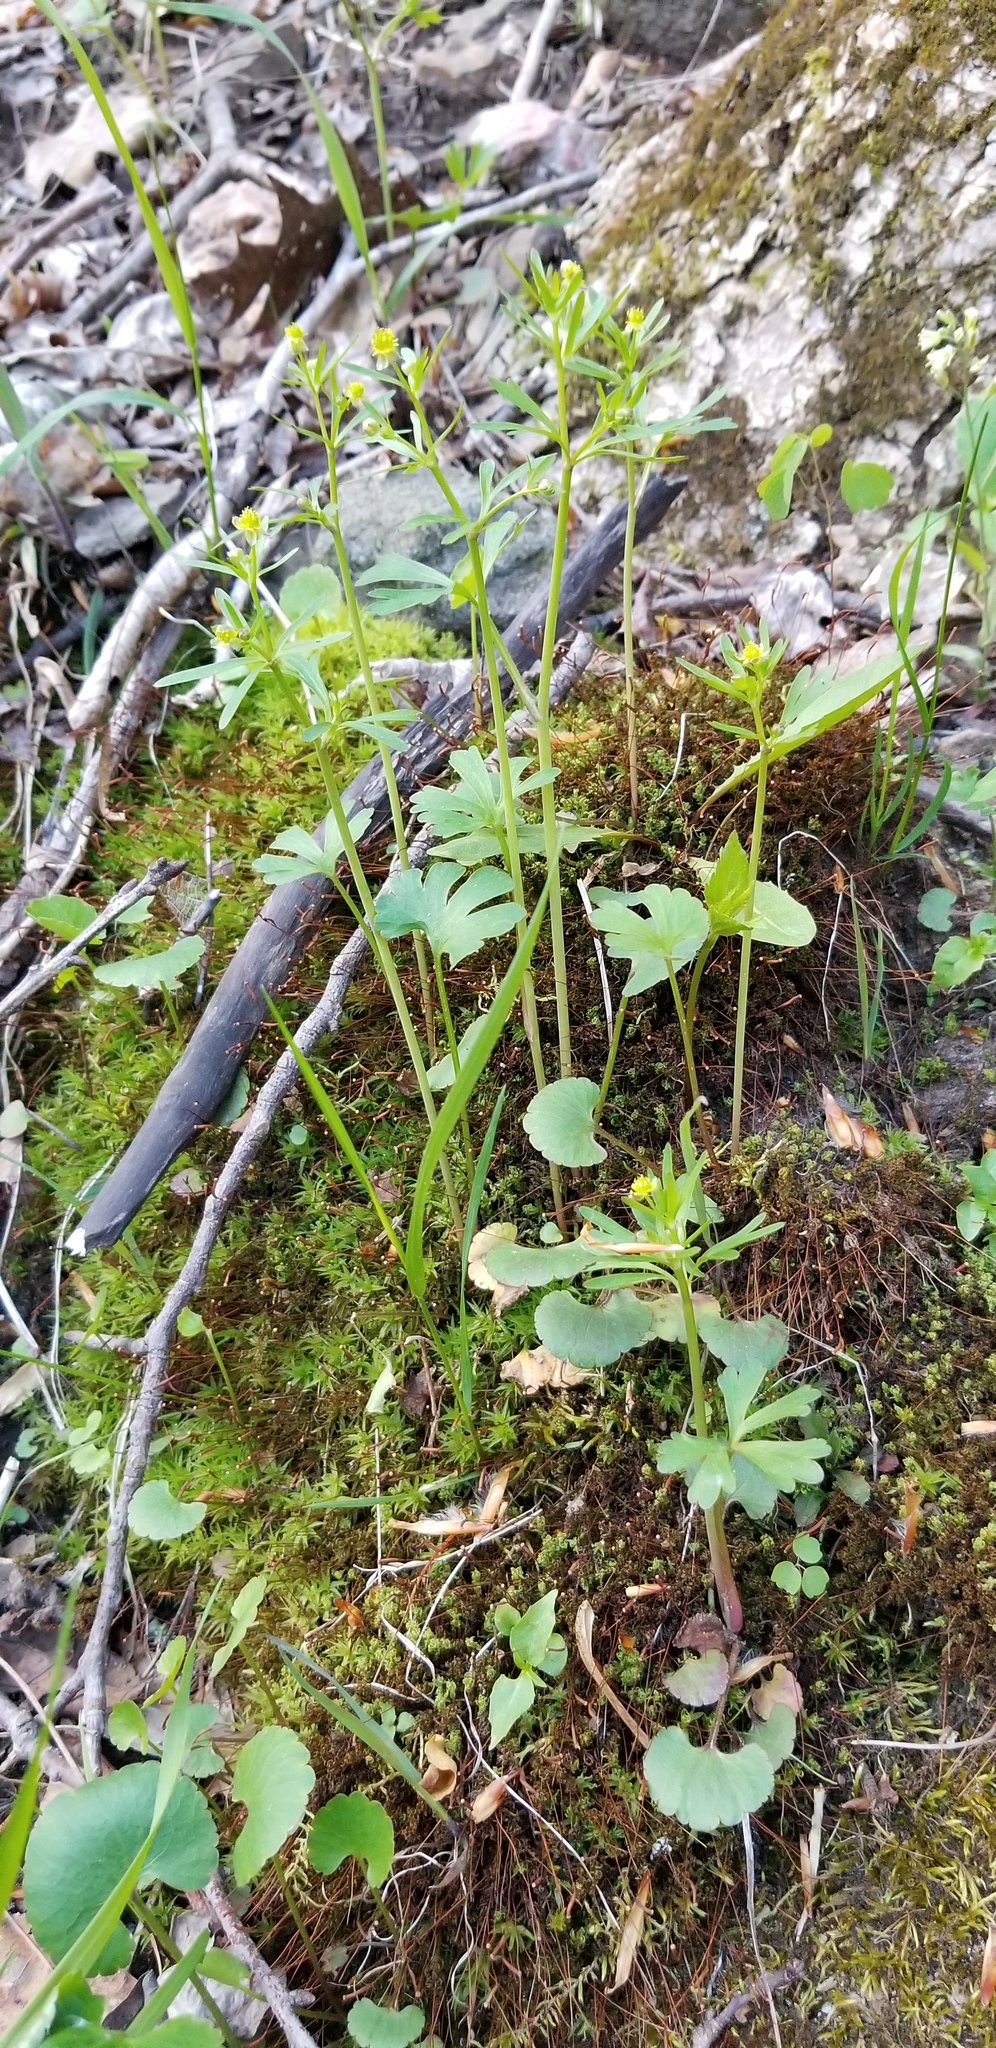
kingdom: Plantae
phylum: Tracheophyta
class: Magnoliopsida
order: Ranunculales
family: Ranunculaceae
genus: Ranunculus
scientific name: Ranunculus allegheniensis
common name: Allegheny mountain buttercup
